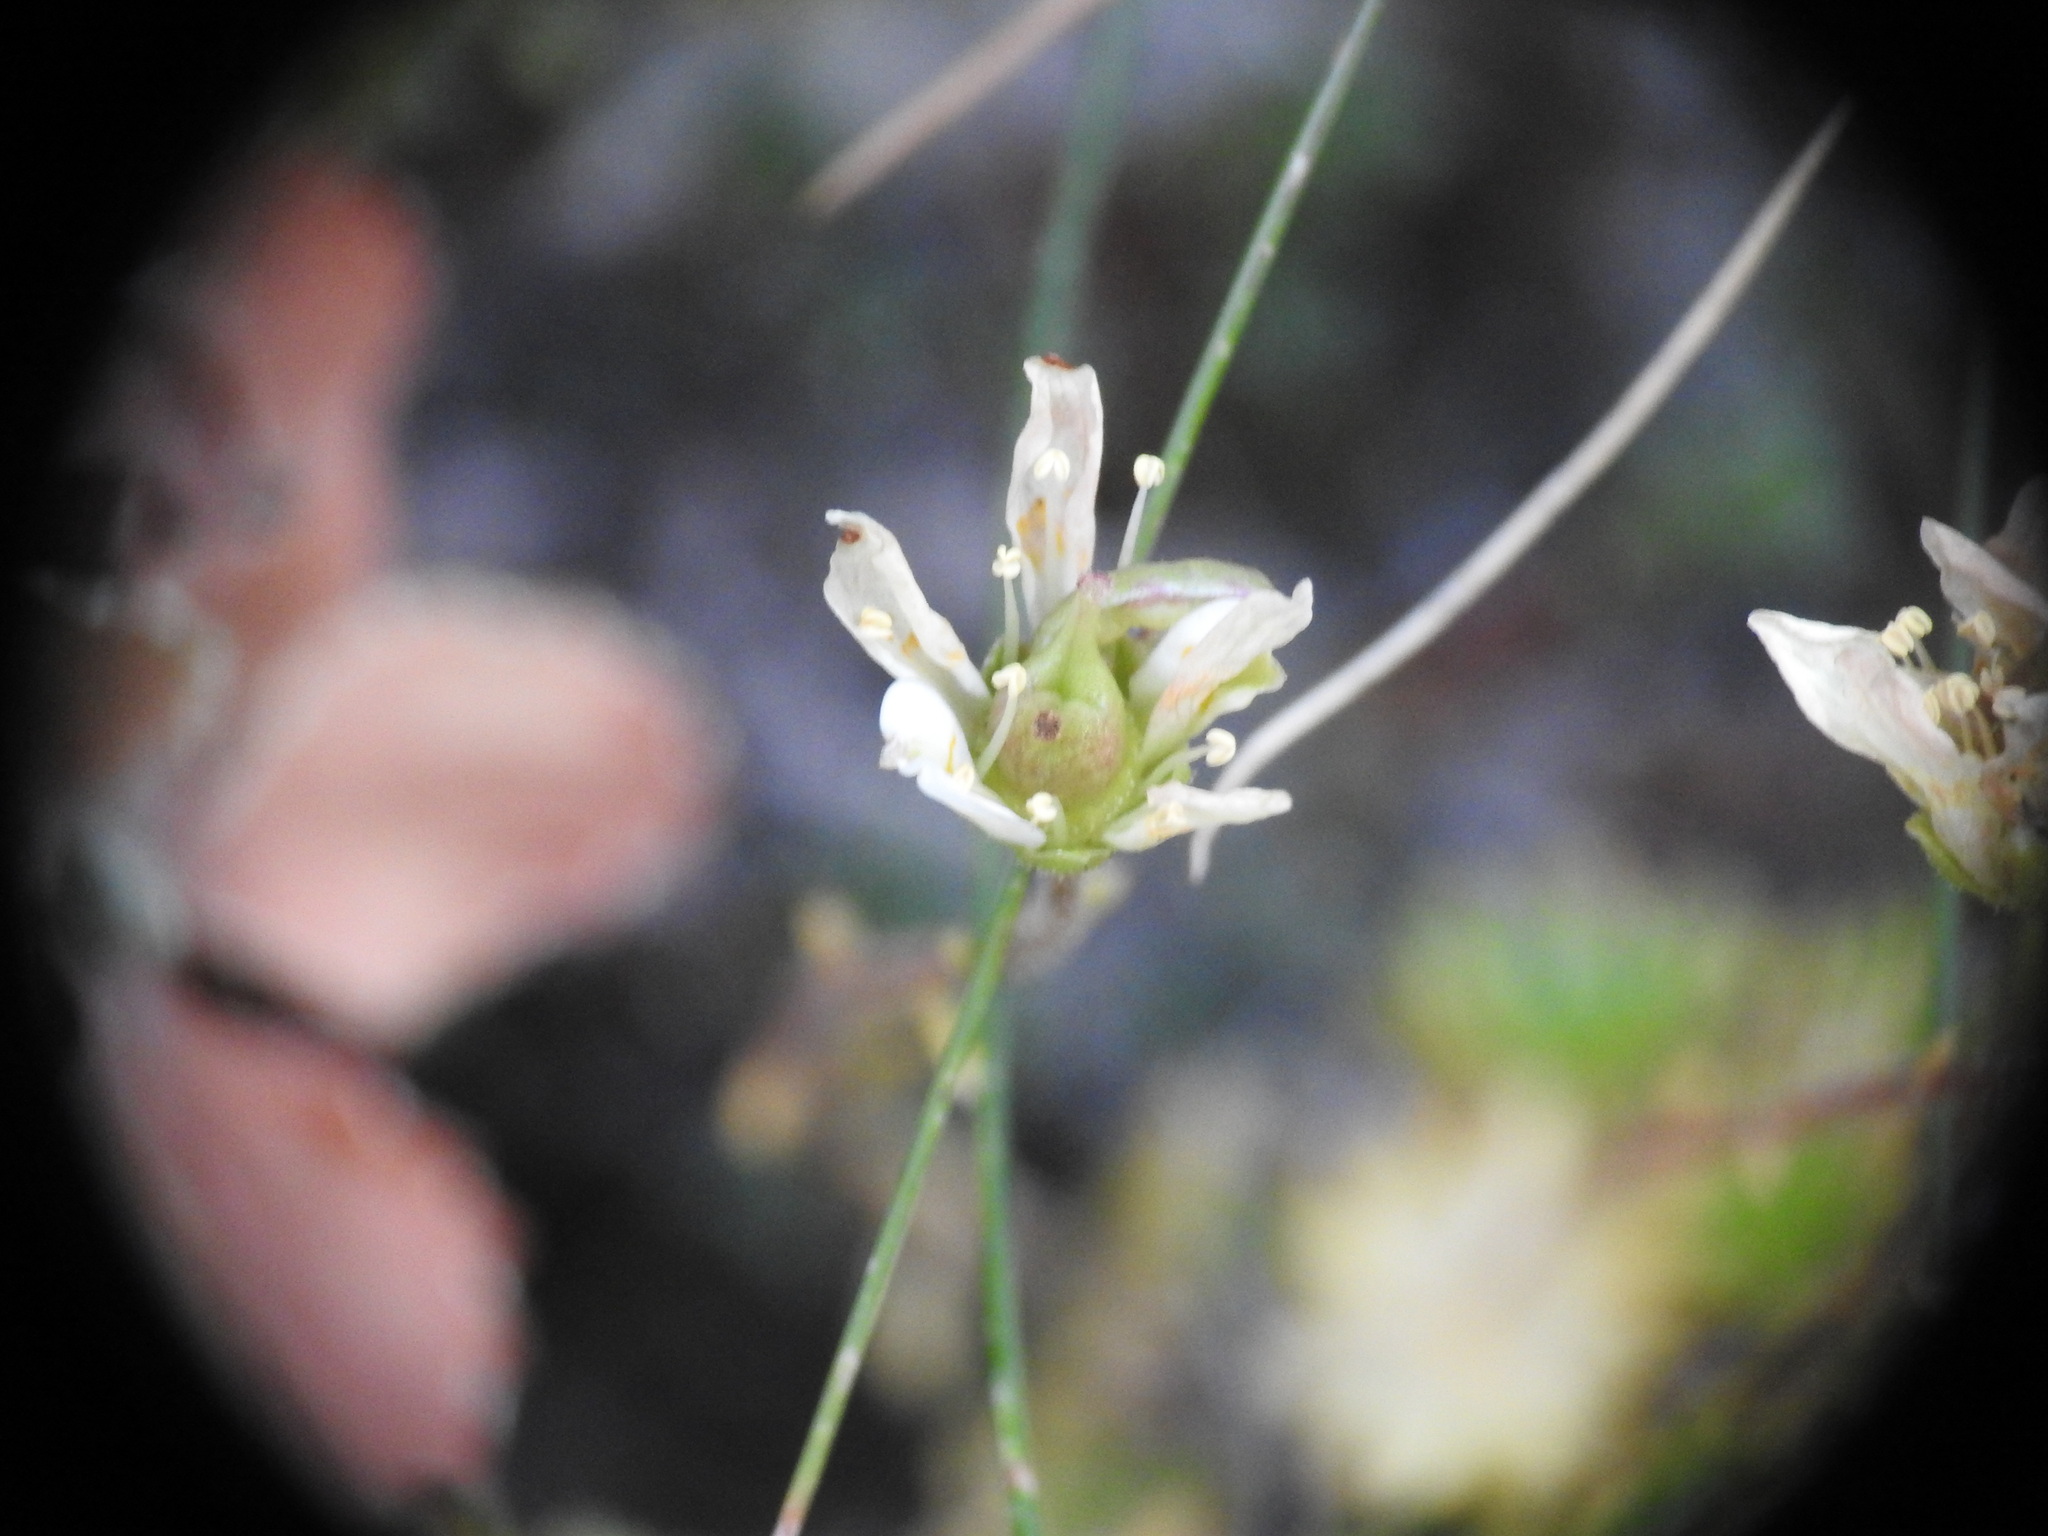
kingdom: Plantae
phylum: Tracheophyta
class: Magnoliopsida
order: Saxifragales
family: Saxifragaceae
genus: Saxifraga
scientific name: Saxifraga bryoides
